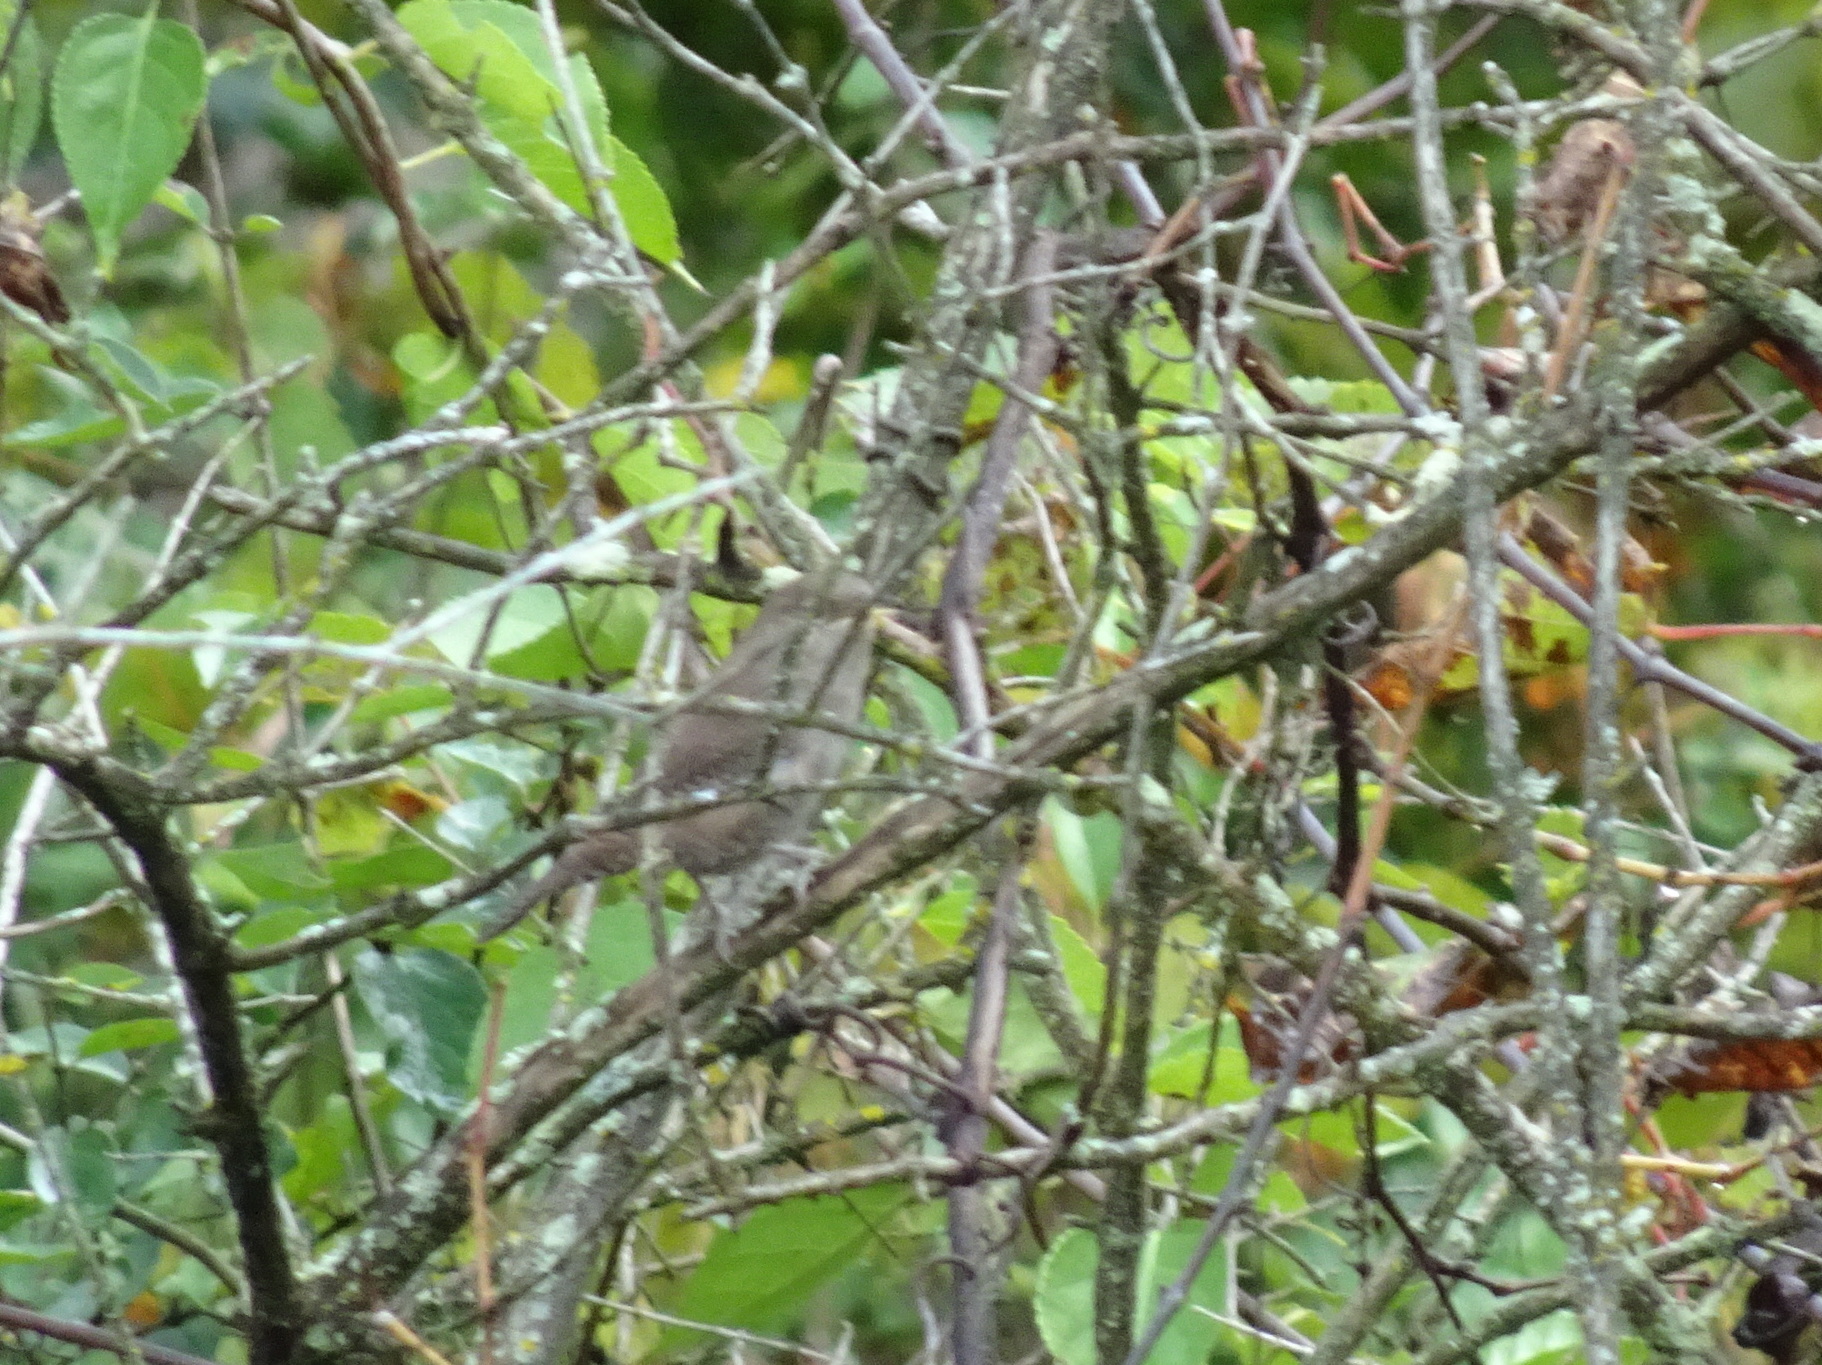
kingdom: Animalia
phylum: Chordata
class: Aves
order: Passeriformes
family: Troglodytidae
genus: Troglodytes
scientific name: Troglodytes aedon
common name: House wren
